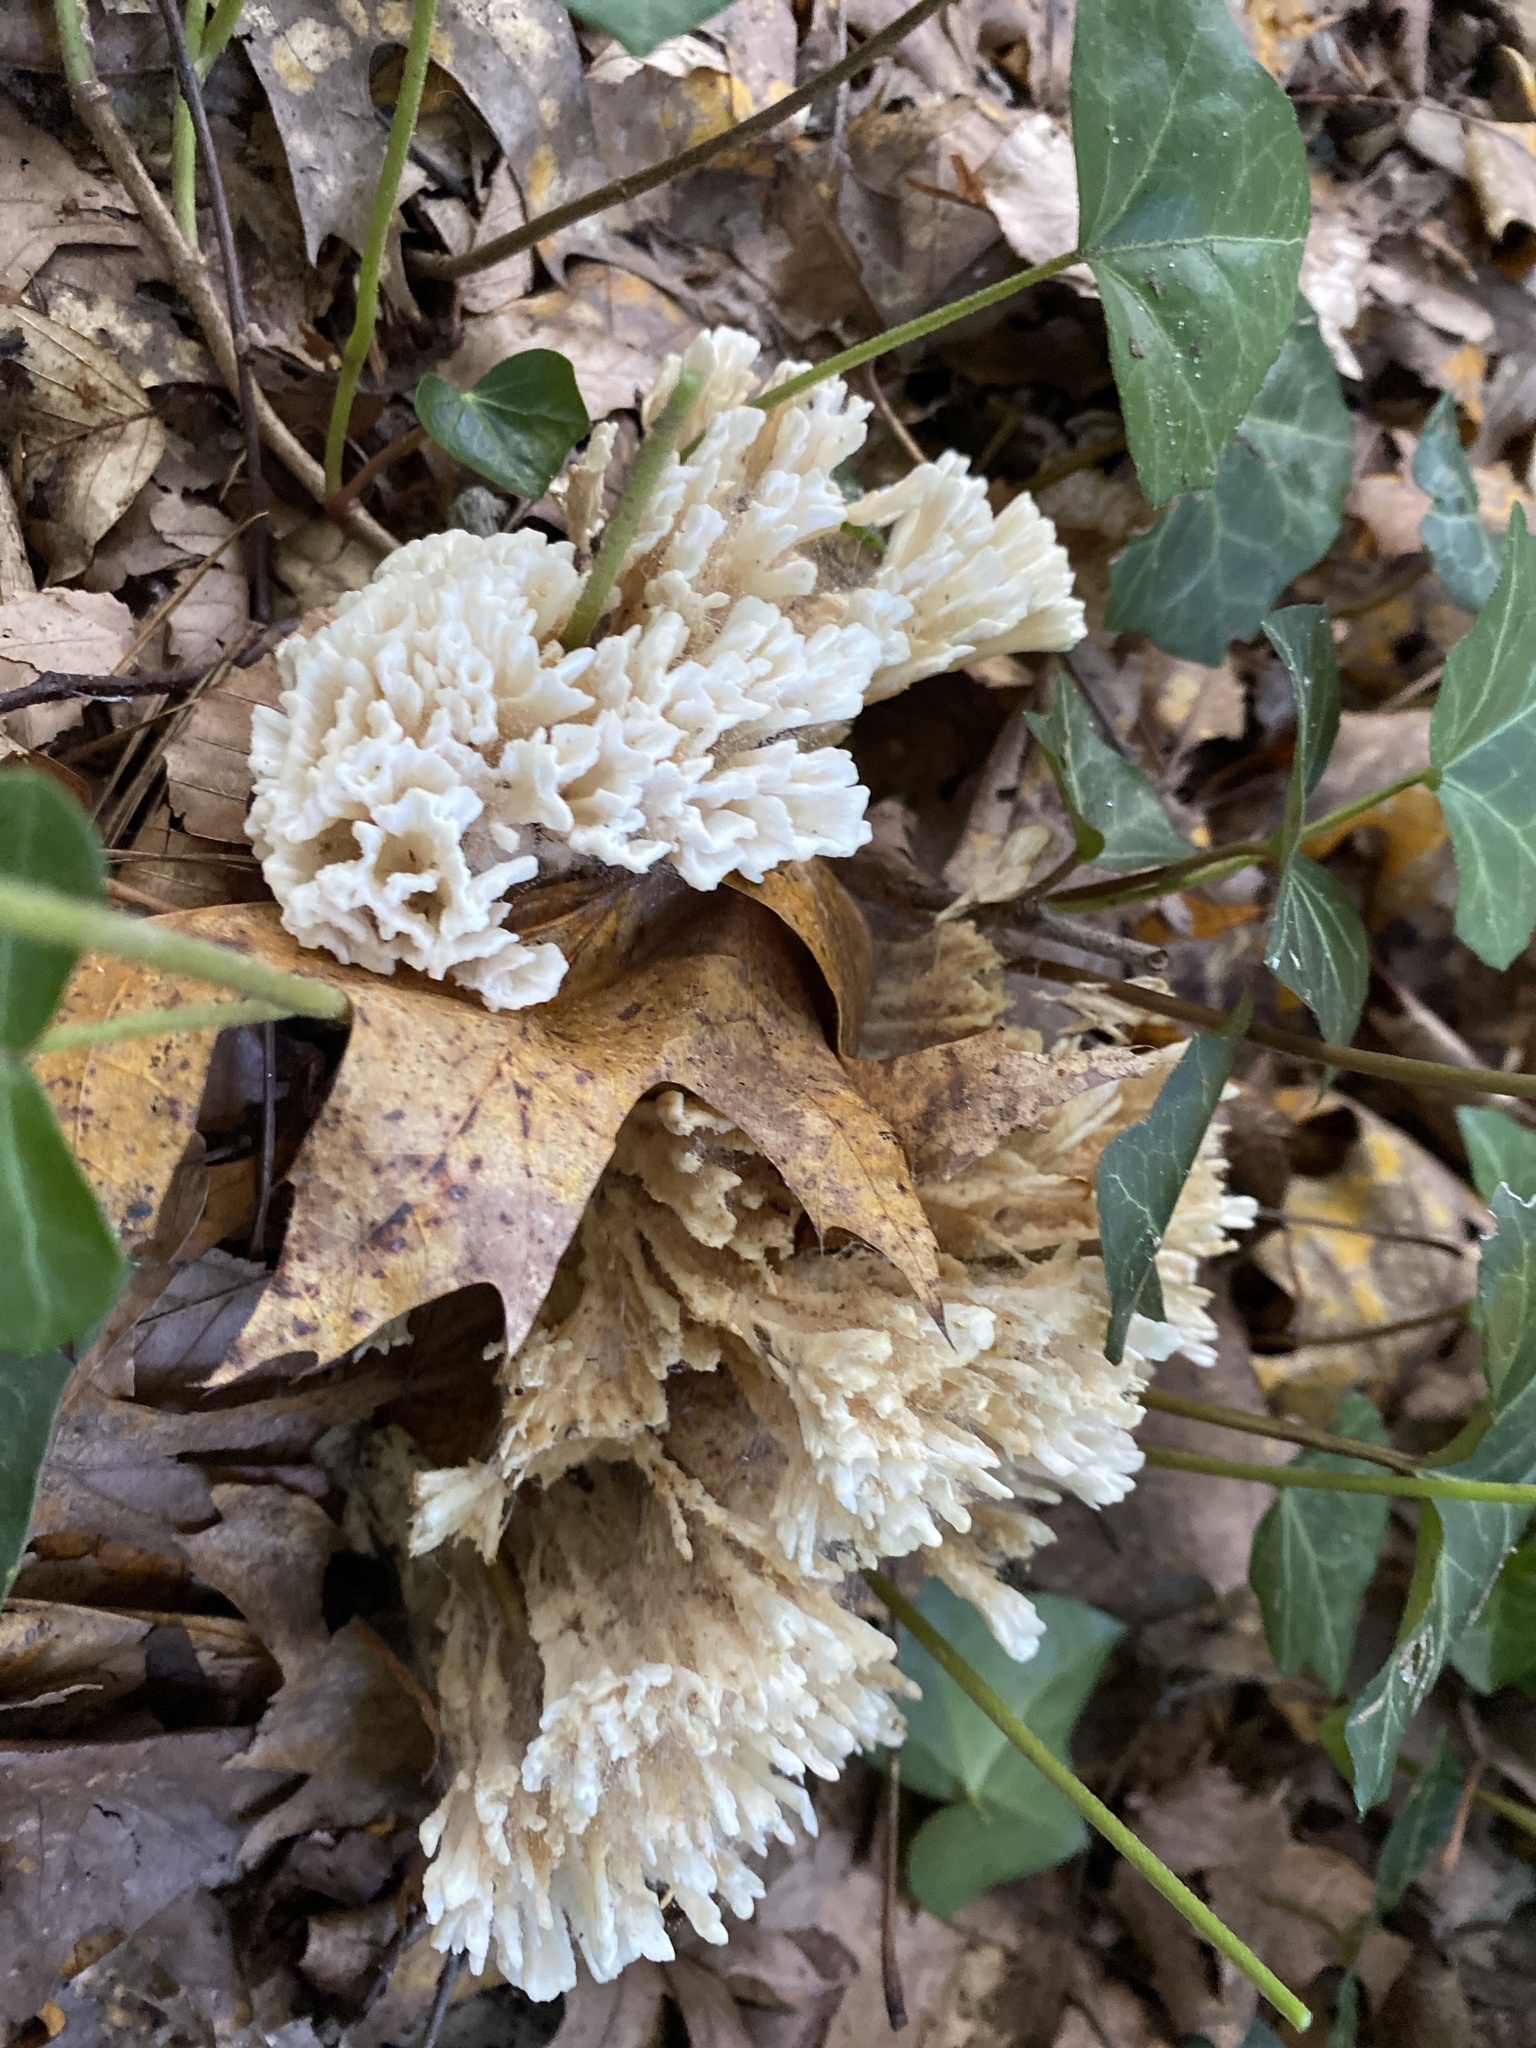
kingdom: Fungi
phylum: Basidiomycota
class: Agaricomycetes
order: Sebacinales
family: Sebacinaceae
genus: Sebacina
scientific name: Sebacina schweinitzii
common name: Jellied false coral fungus
